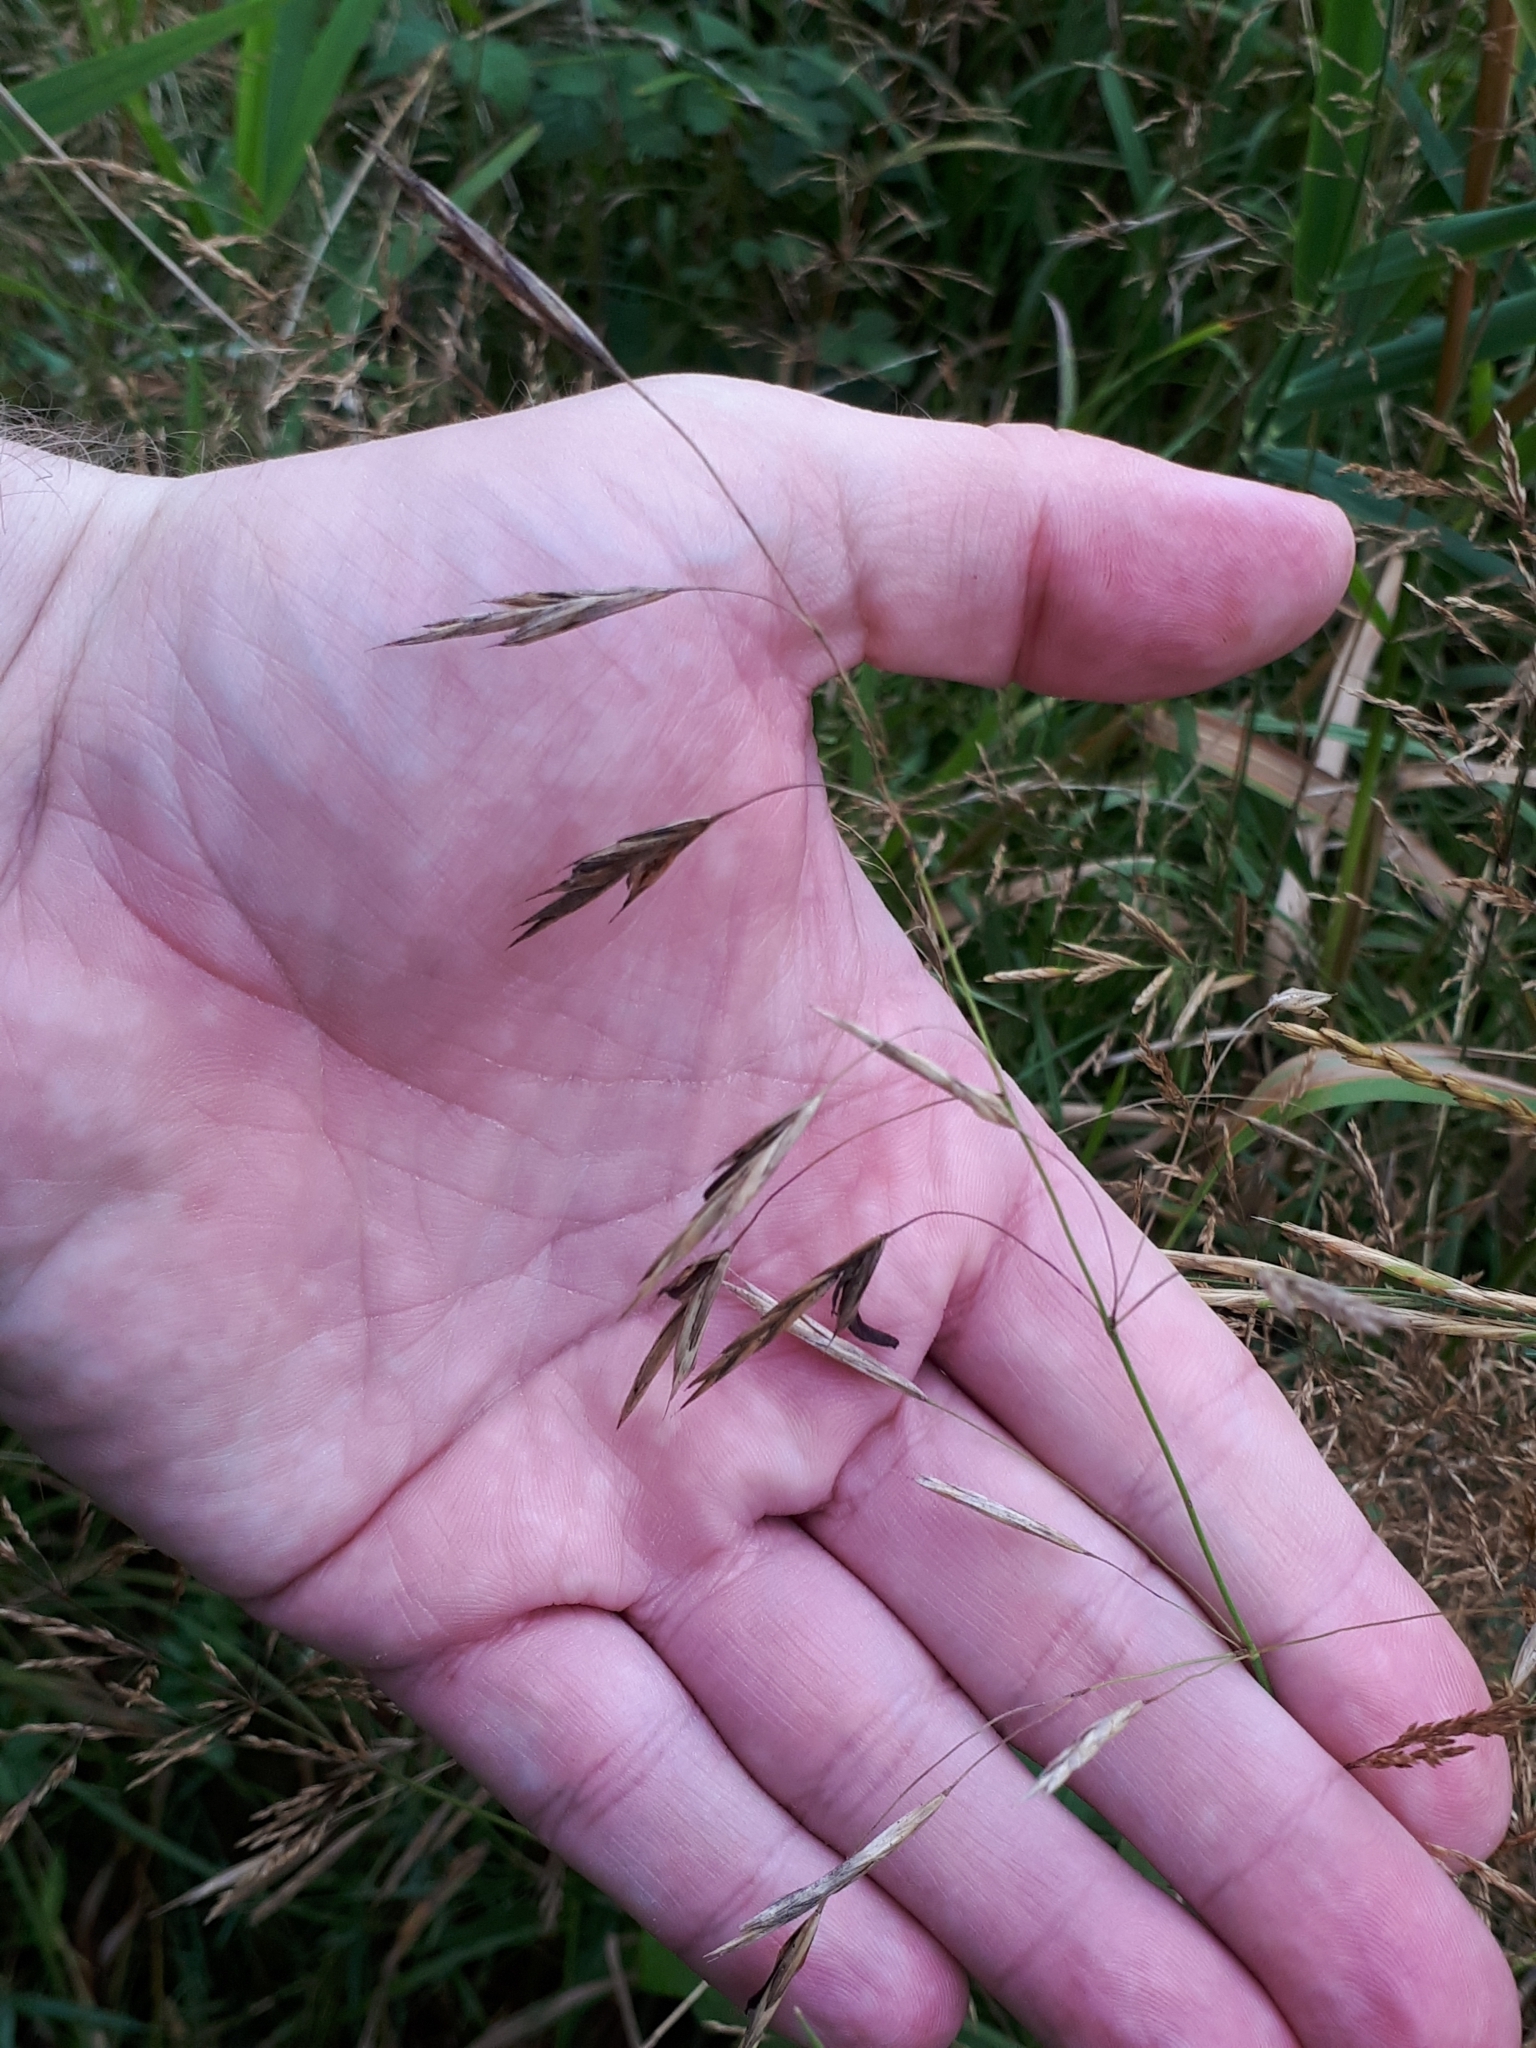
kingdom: Fungi
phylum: Ascomycota
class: Sordariomycetes
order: Hypocreales
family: Clavicipitaceae
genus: Claviceps
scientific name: Claviceps purpurea
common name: Rye ergot
